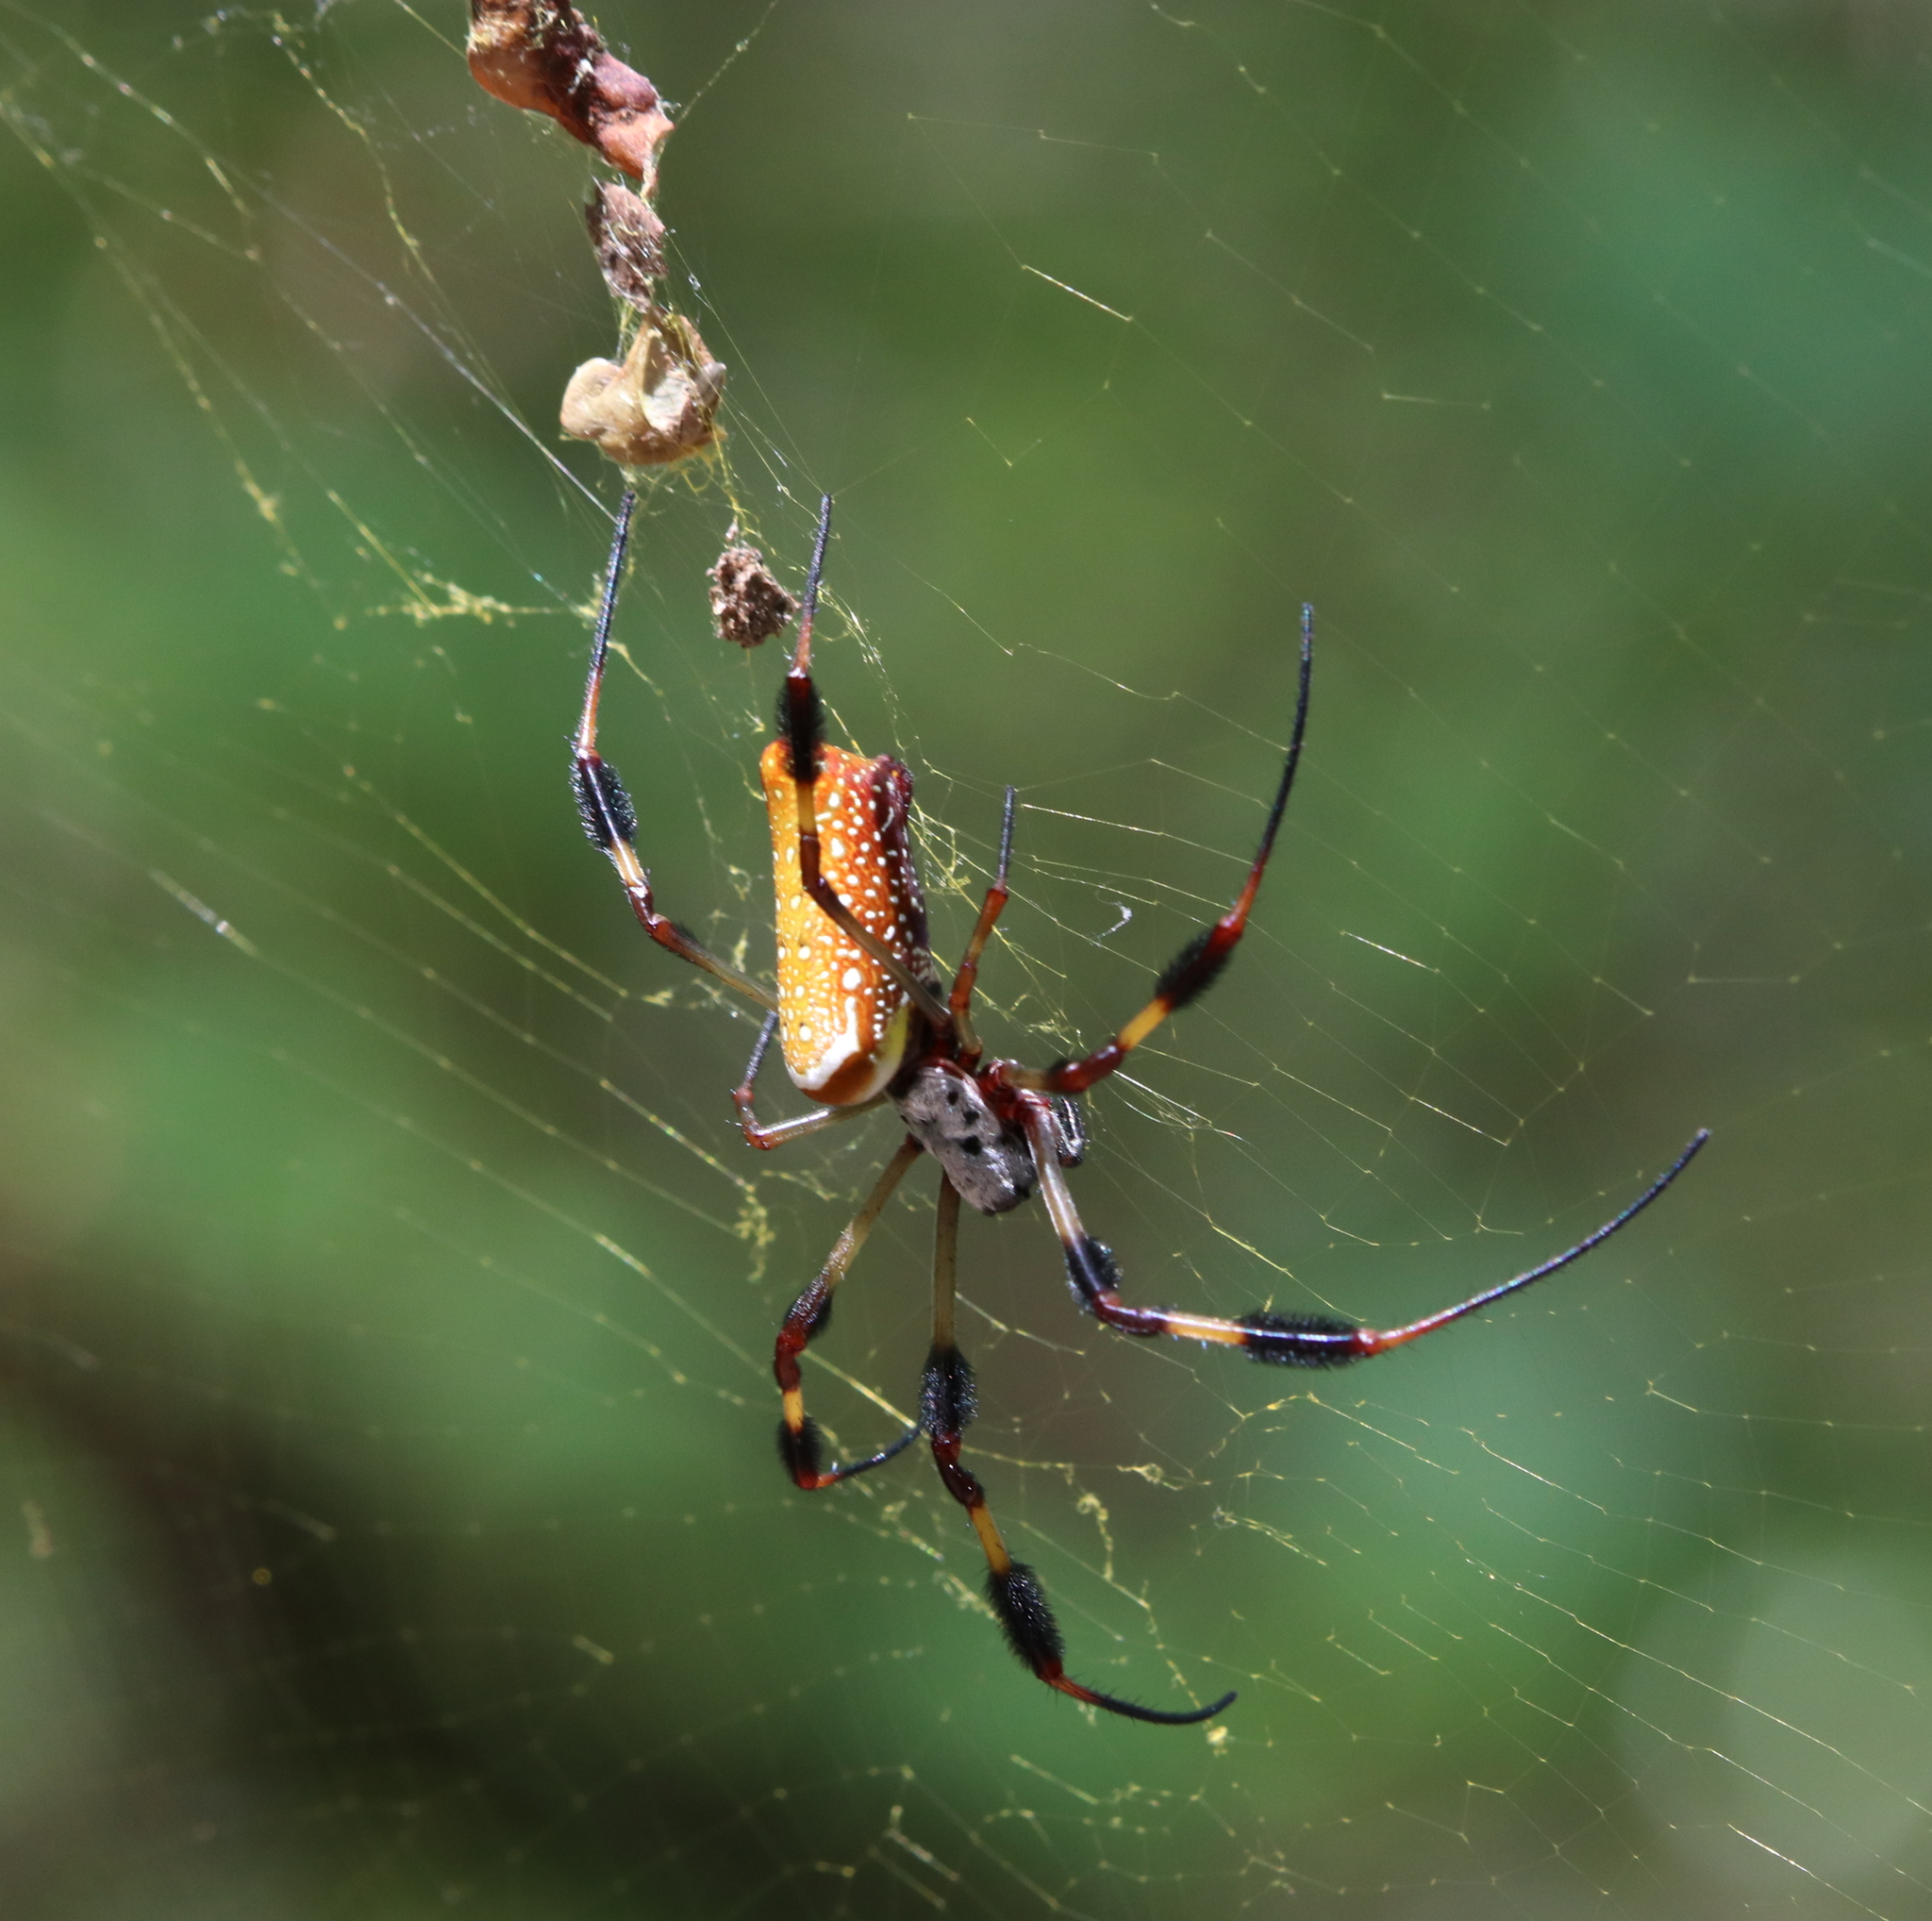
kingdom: Animalia
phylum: Arthropoda
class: Arachnida
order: Araneae
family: Araneidae
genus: Trichonephila
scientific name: Trichonephila clavipes
